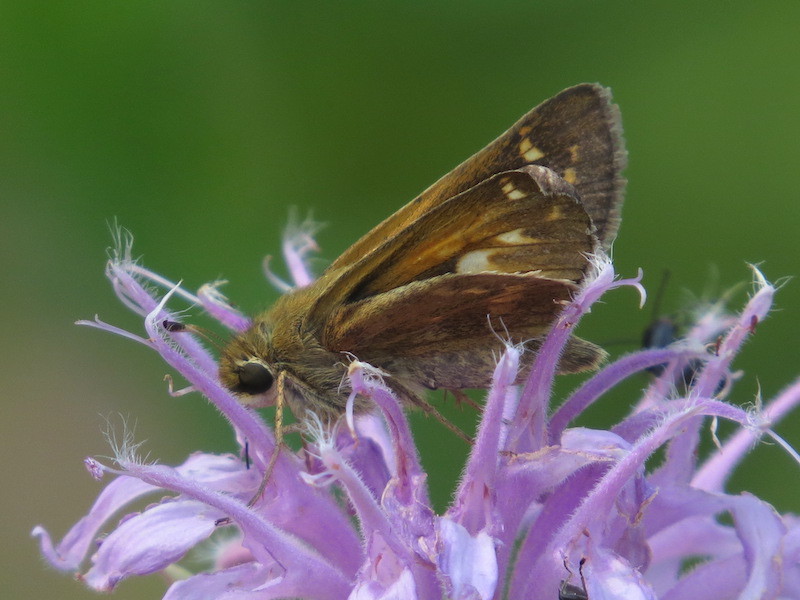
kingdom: Animalia
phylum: Arthropoda
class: Insecta
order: Lepidoptera
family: Hesperiidae
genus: Atalopedes
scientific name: Atalopedes
